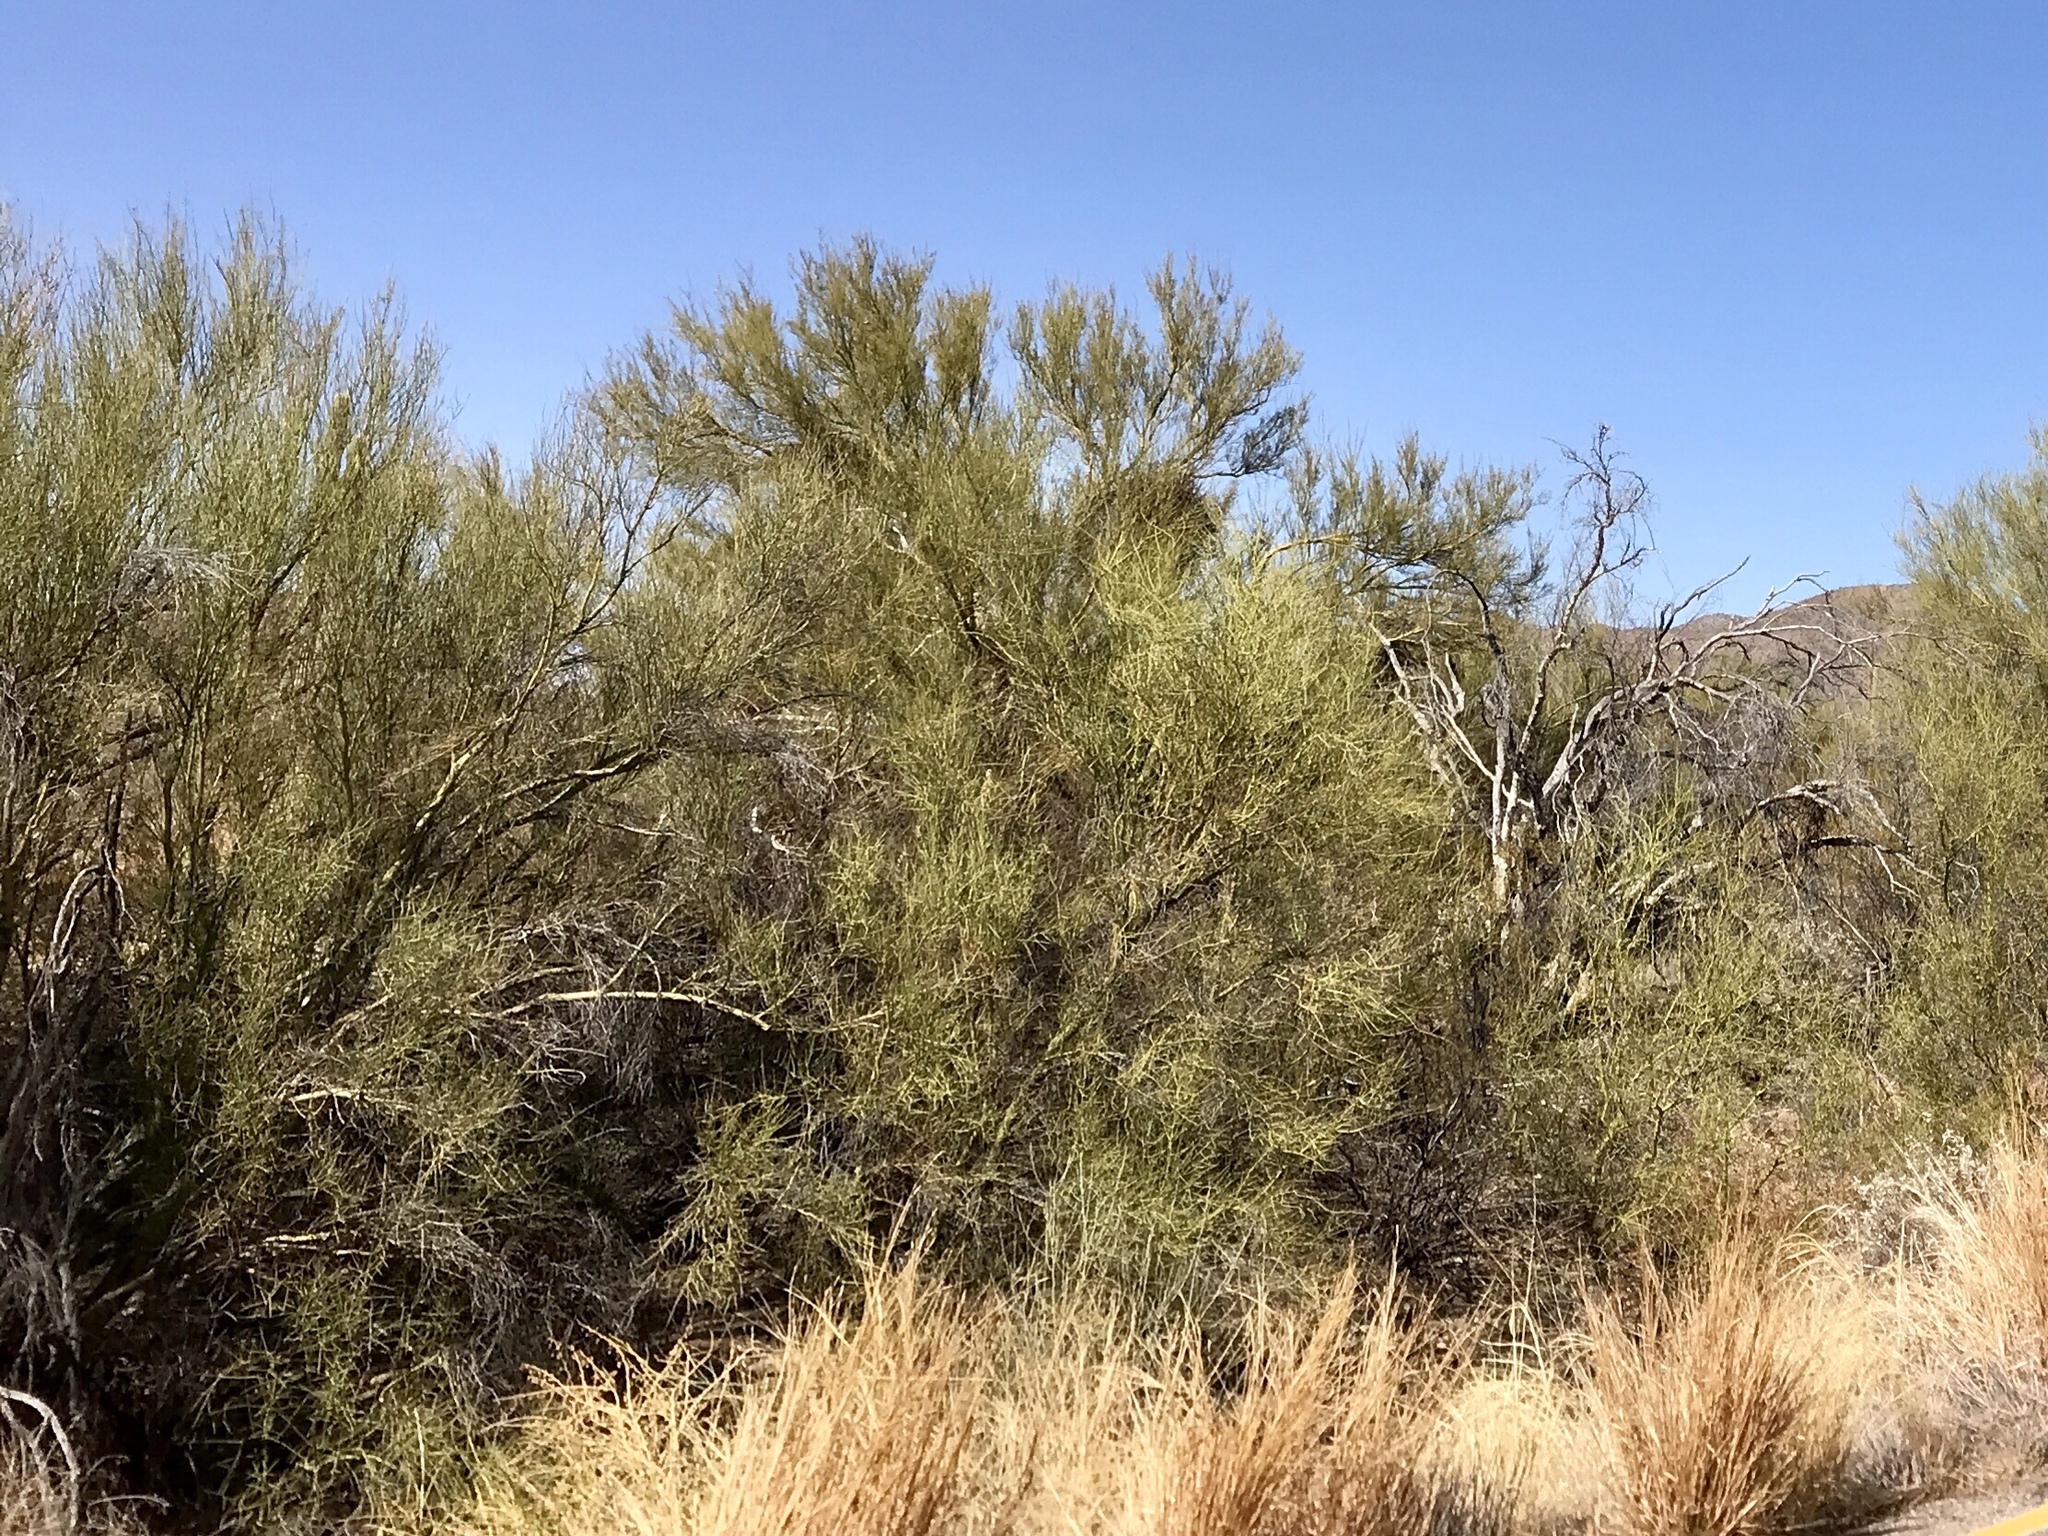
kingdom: Plantae
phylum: Tracheophyta
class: Magnoliopsida
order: Fabales
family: Fabaceae
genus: Parkinsonia
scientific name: Parkinsonia microphylla
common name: Yellow paloverde
